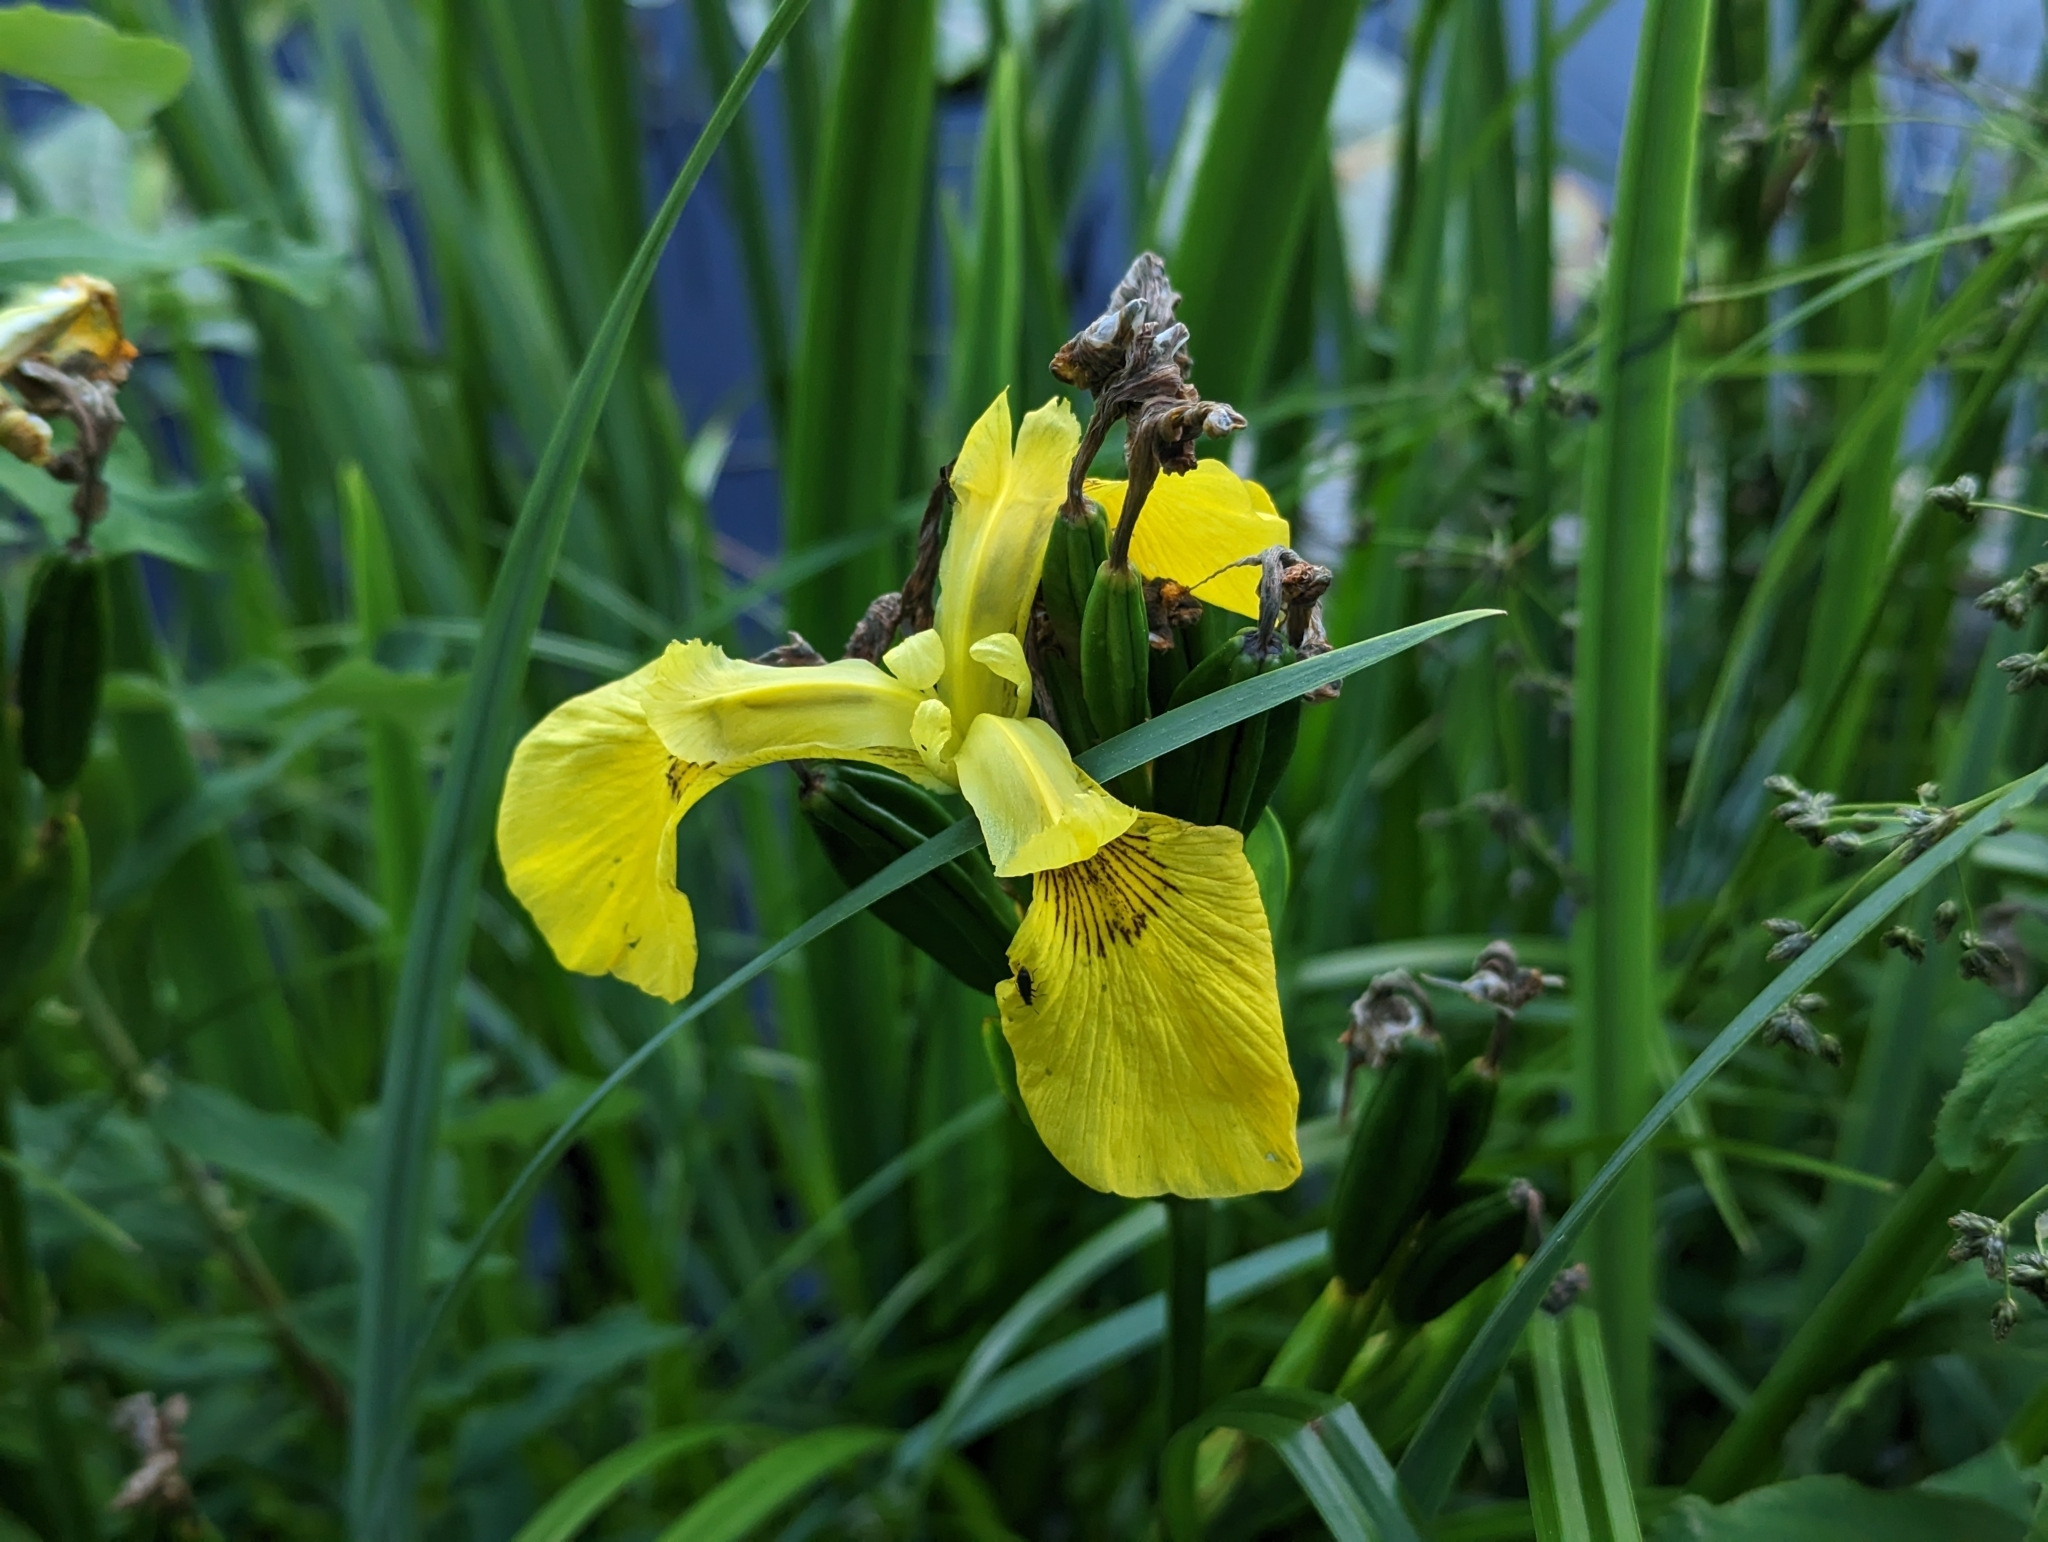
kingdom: Plantae
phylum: Tracheophyta
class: Liliopsida
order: Asparagales
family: Iridaceae
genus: Iris
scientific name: Iris pseudacorus
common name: Yellow flag
